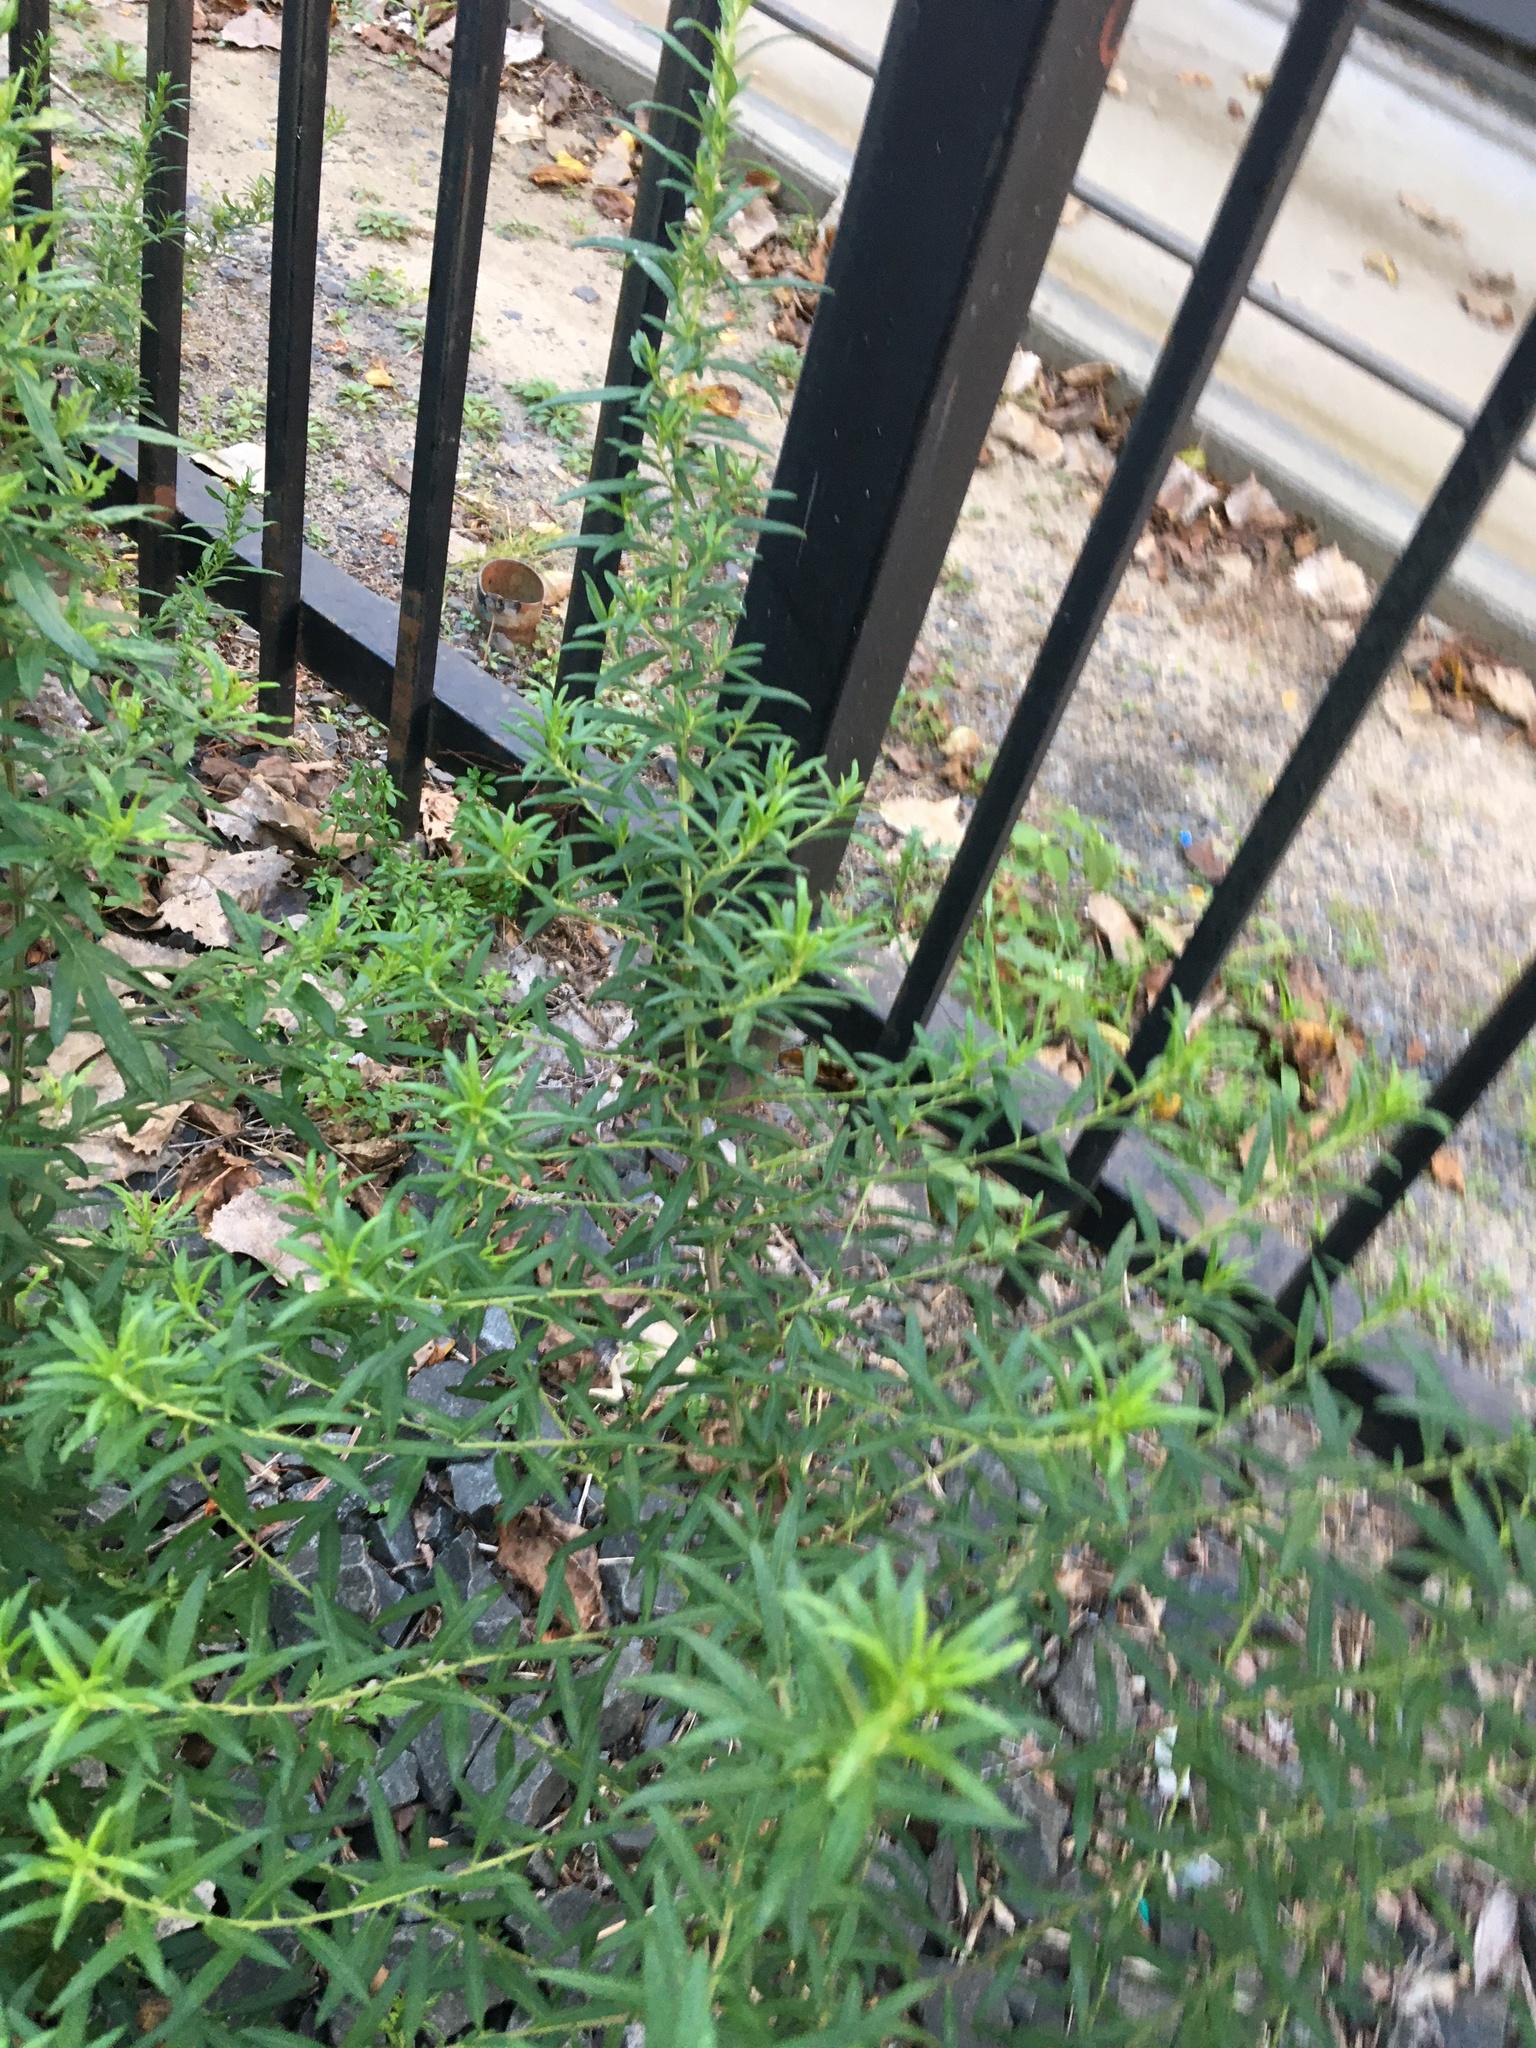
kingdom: Plantae
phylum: Tracheophyta
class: Magnoliopsida
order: Asterales
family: Asteraceae
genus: Artemisia
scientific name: Artemisia vulgaris
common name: Mugwort
